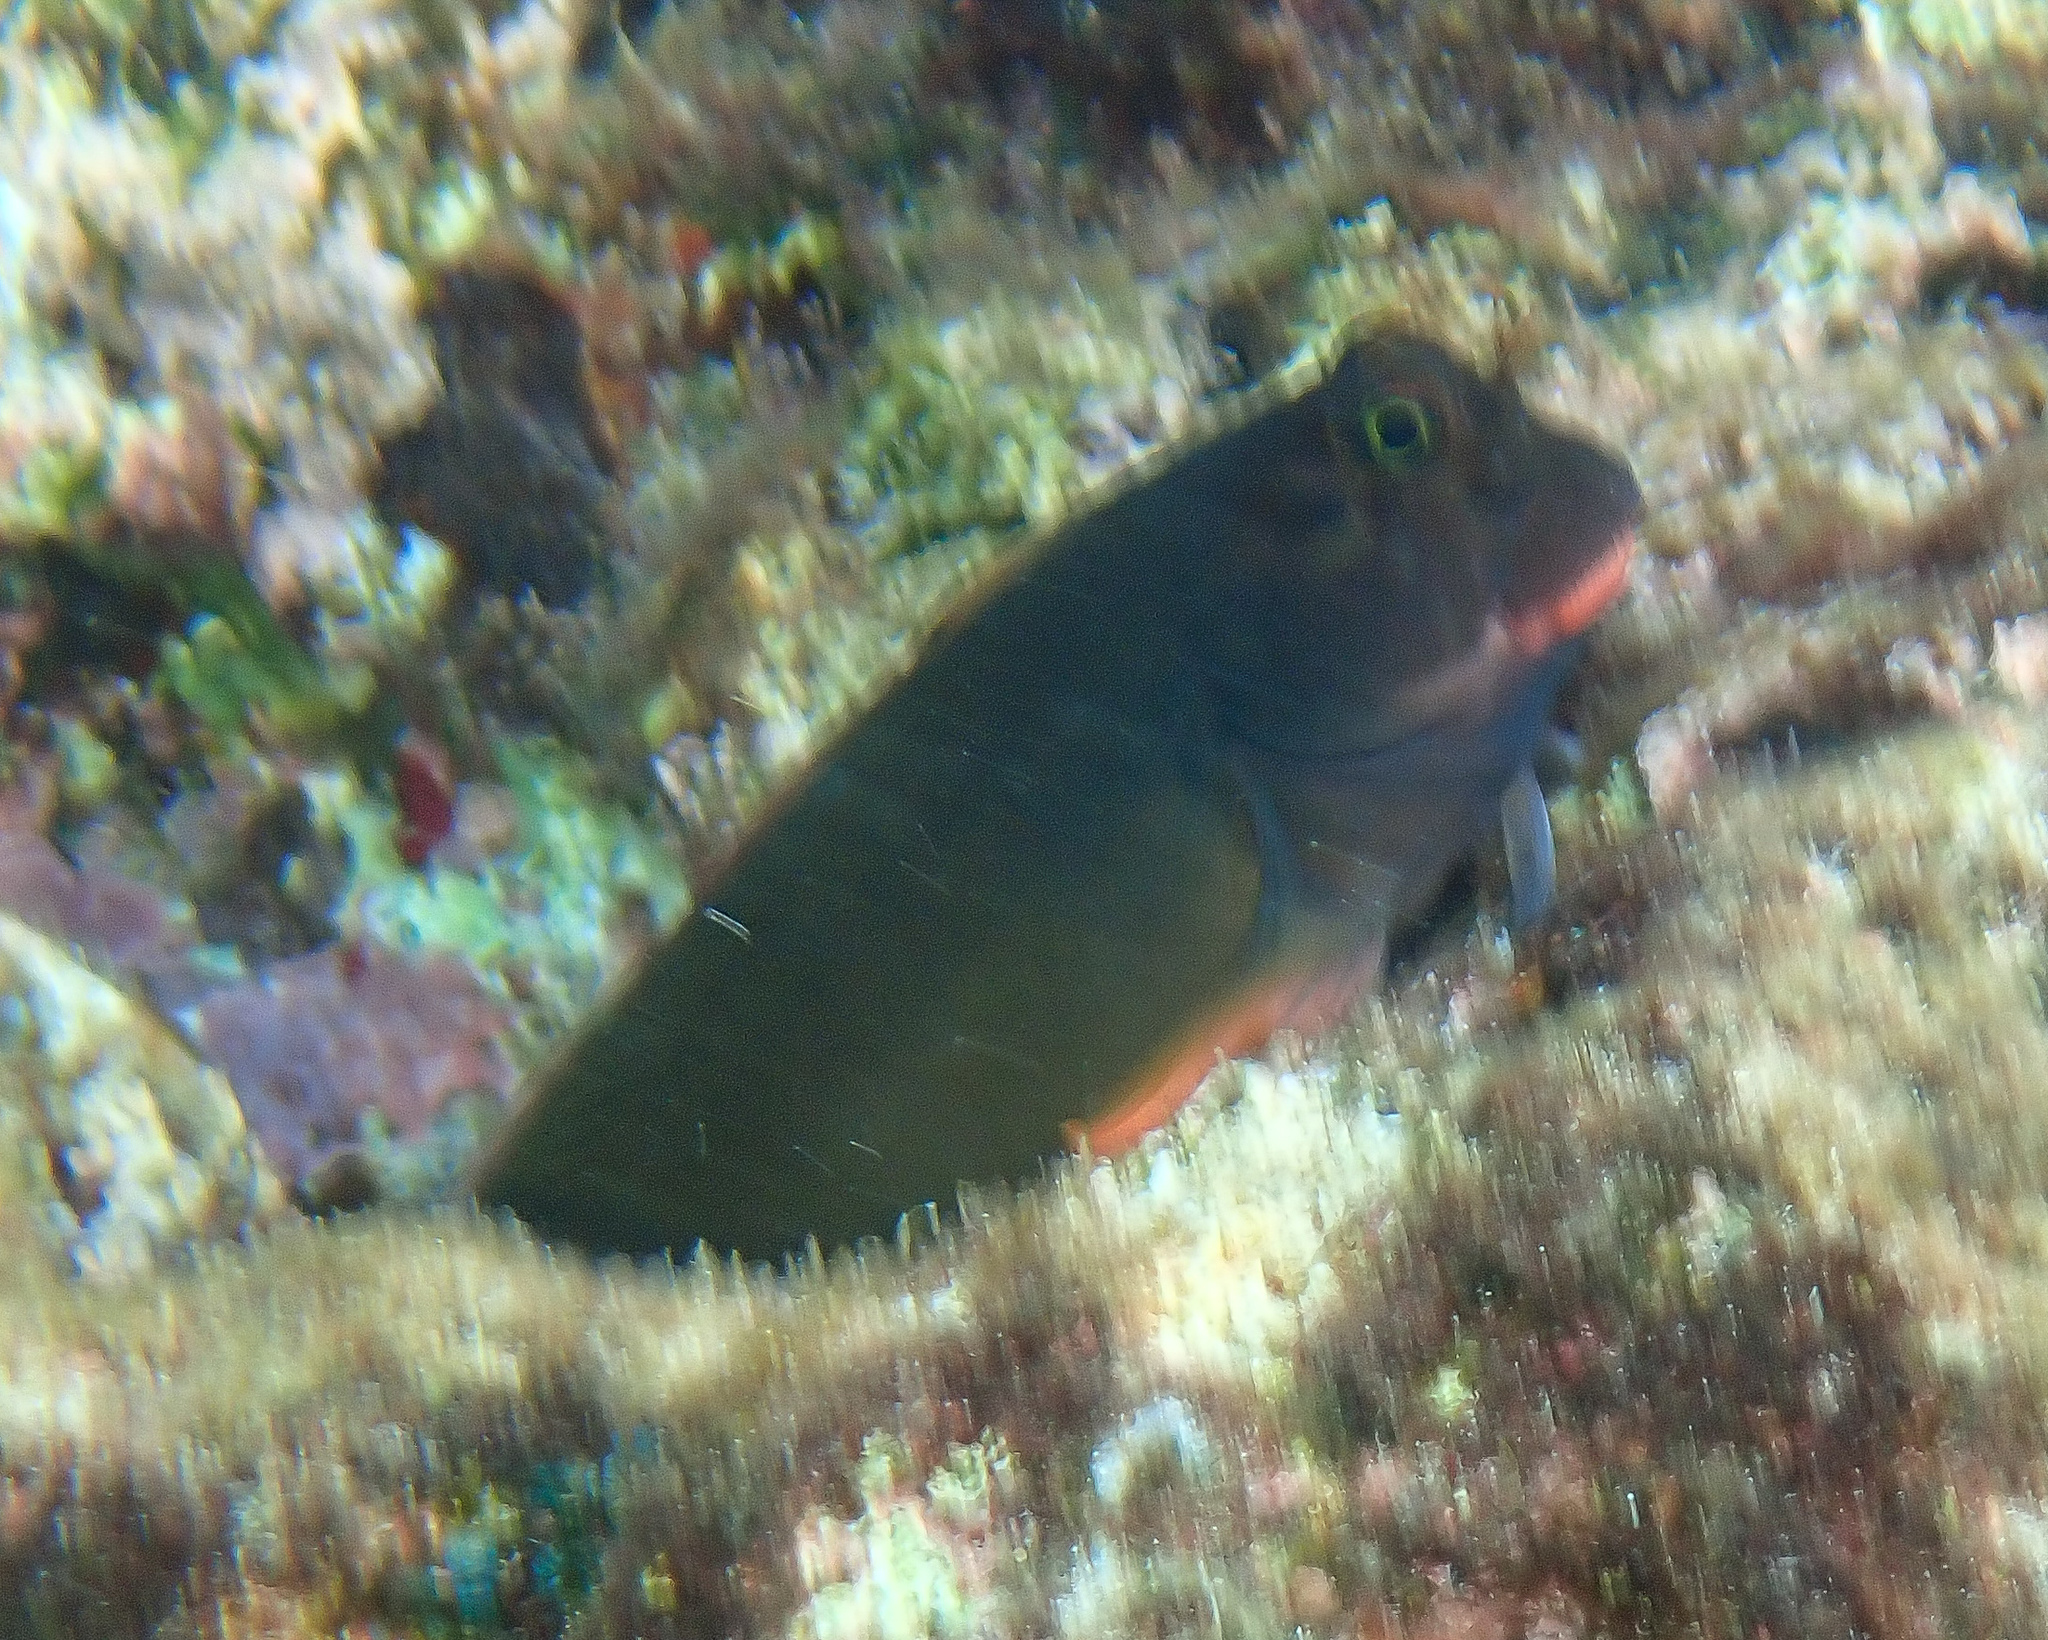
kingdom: Animalia
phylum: Chordata
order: Perciformes
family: Blenniidae
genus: Ophioblennius
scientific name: Ophioblennius macclurei
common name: Redlip blenny
